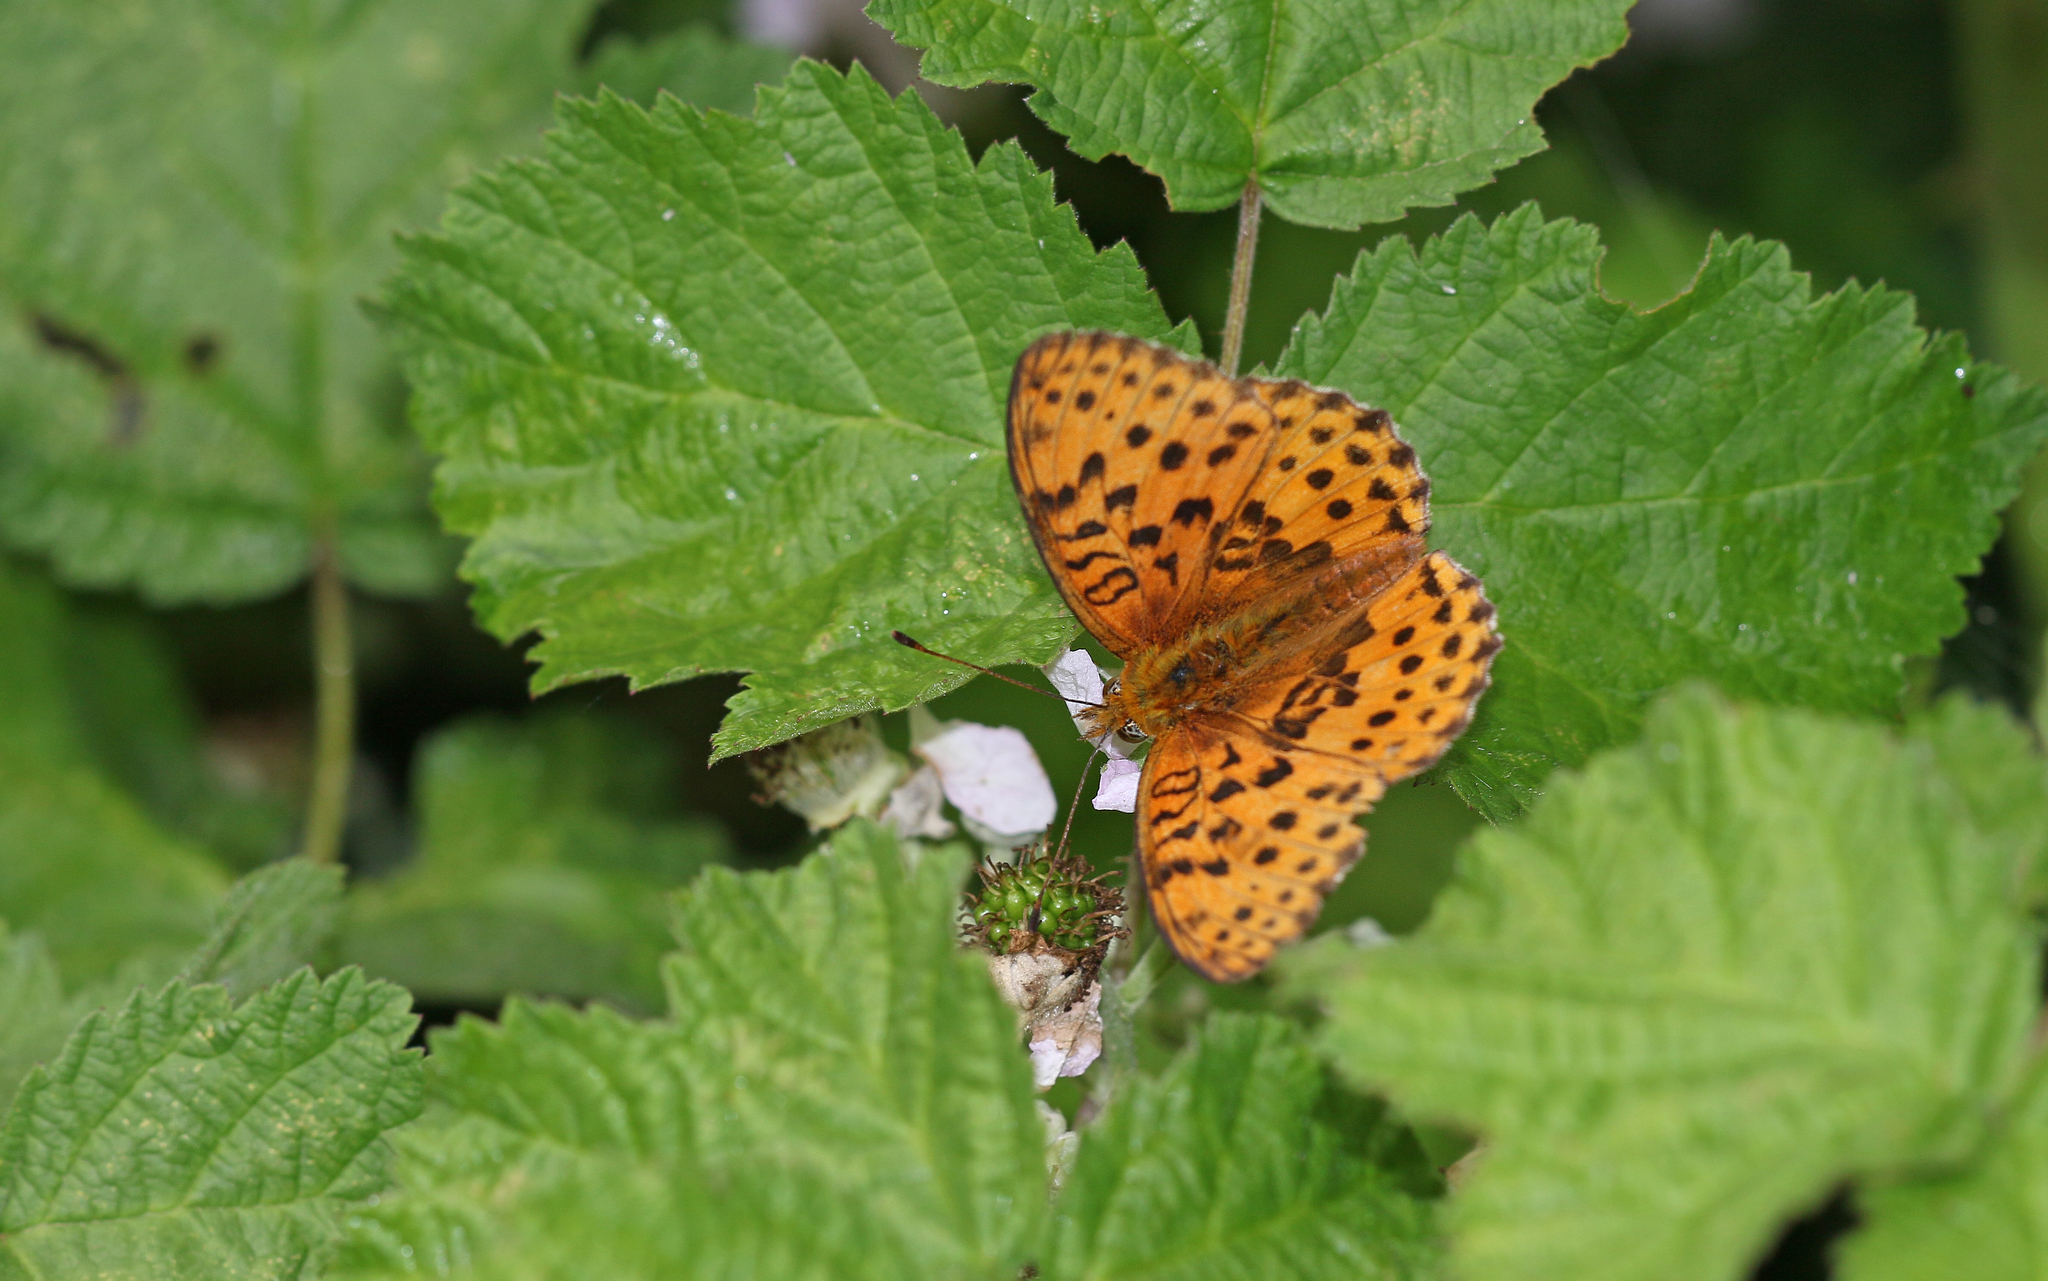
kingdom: Animalia
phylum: Arthropoda
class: Insecta
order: Lepidoptera
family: Nymphalidae
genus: Brenthis
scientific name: Brenthis daphne
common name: Marbled fritillary
